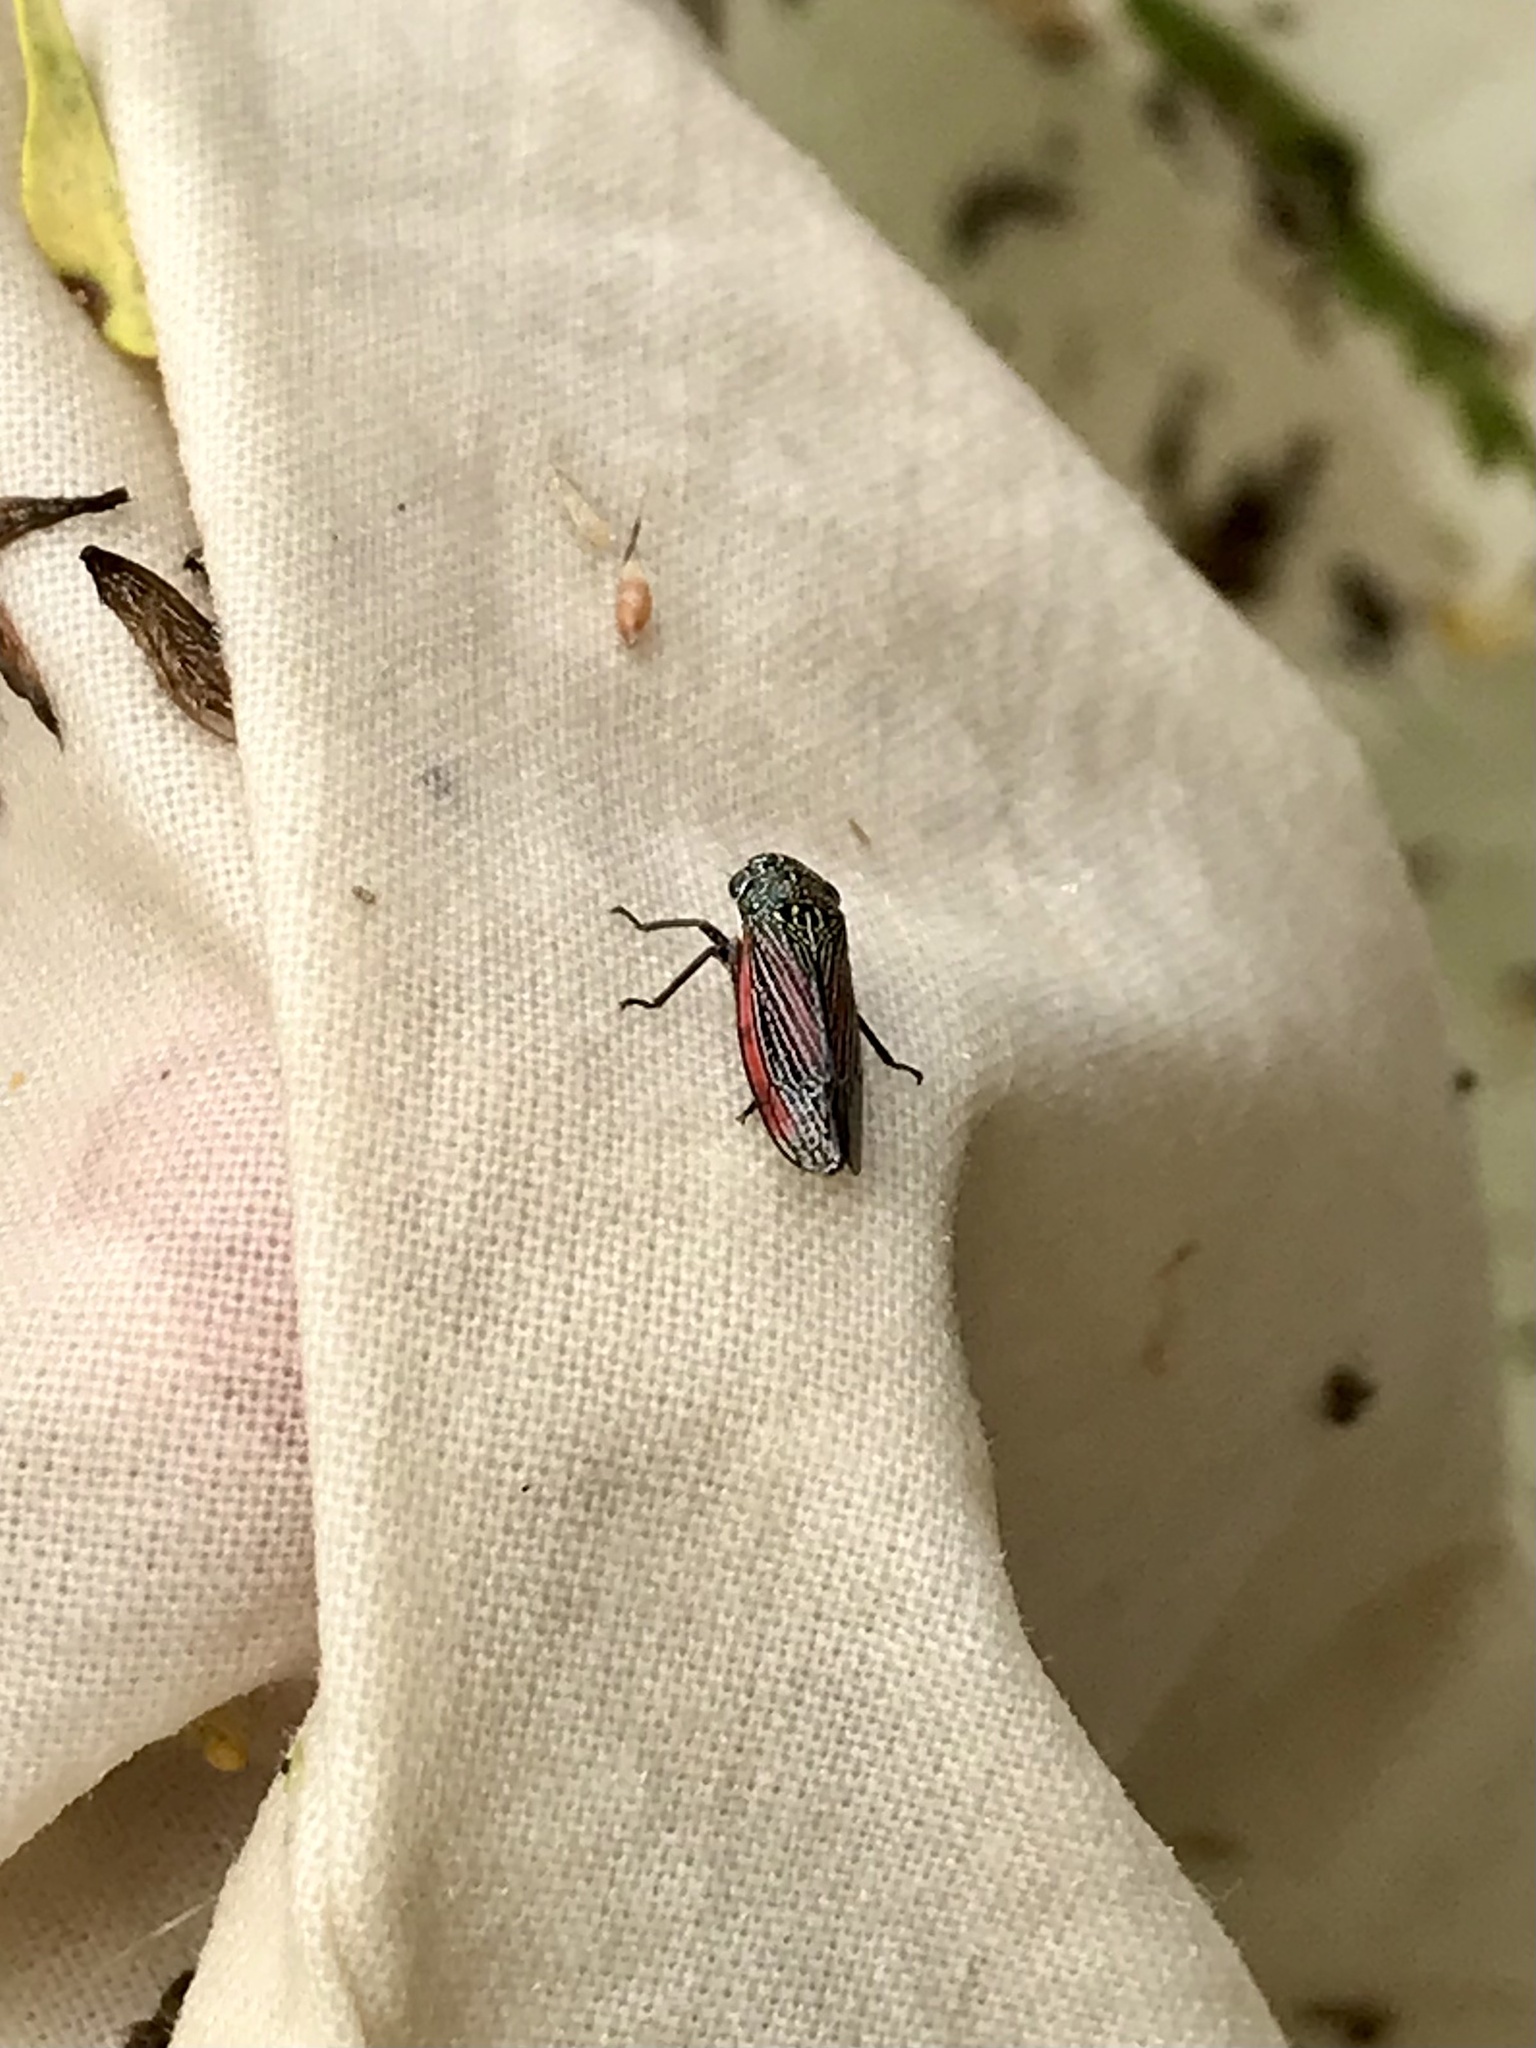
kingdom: Animalia
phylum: Arthropoda
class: Insecta
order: Hemiptera
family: Cicadellidae
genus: Cuerna
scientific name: Cuerna striata
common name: Striped leafhopper
